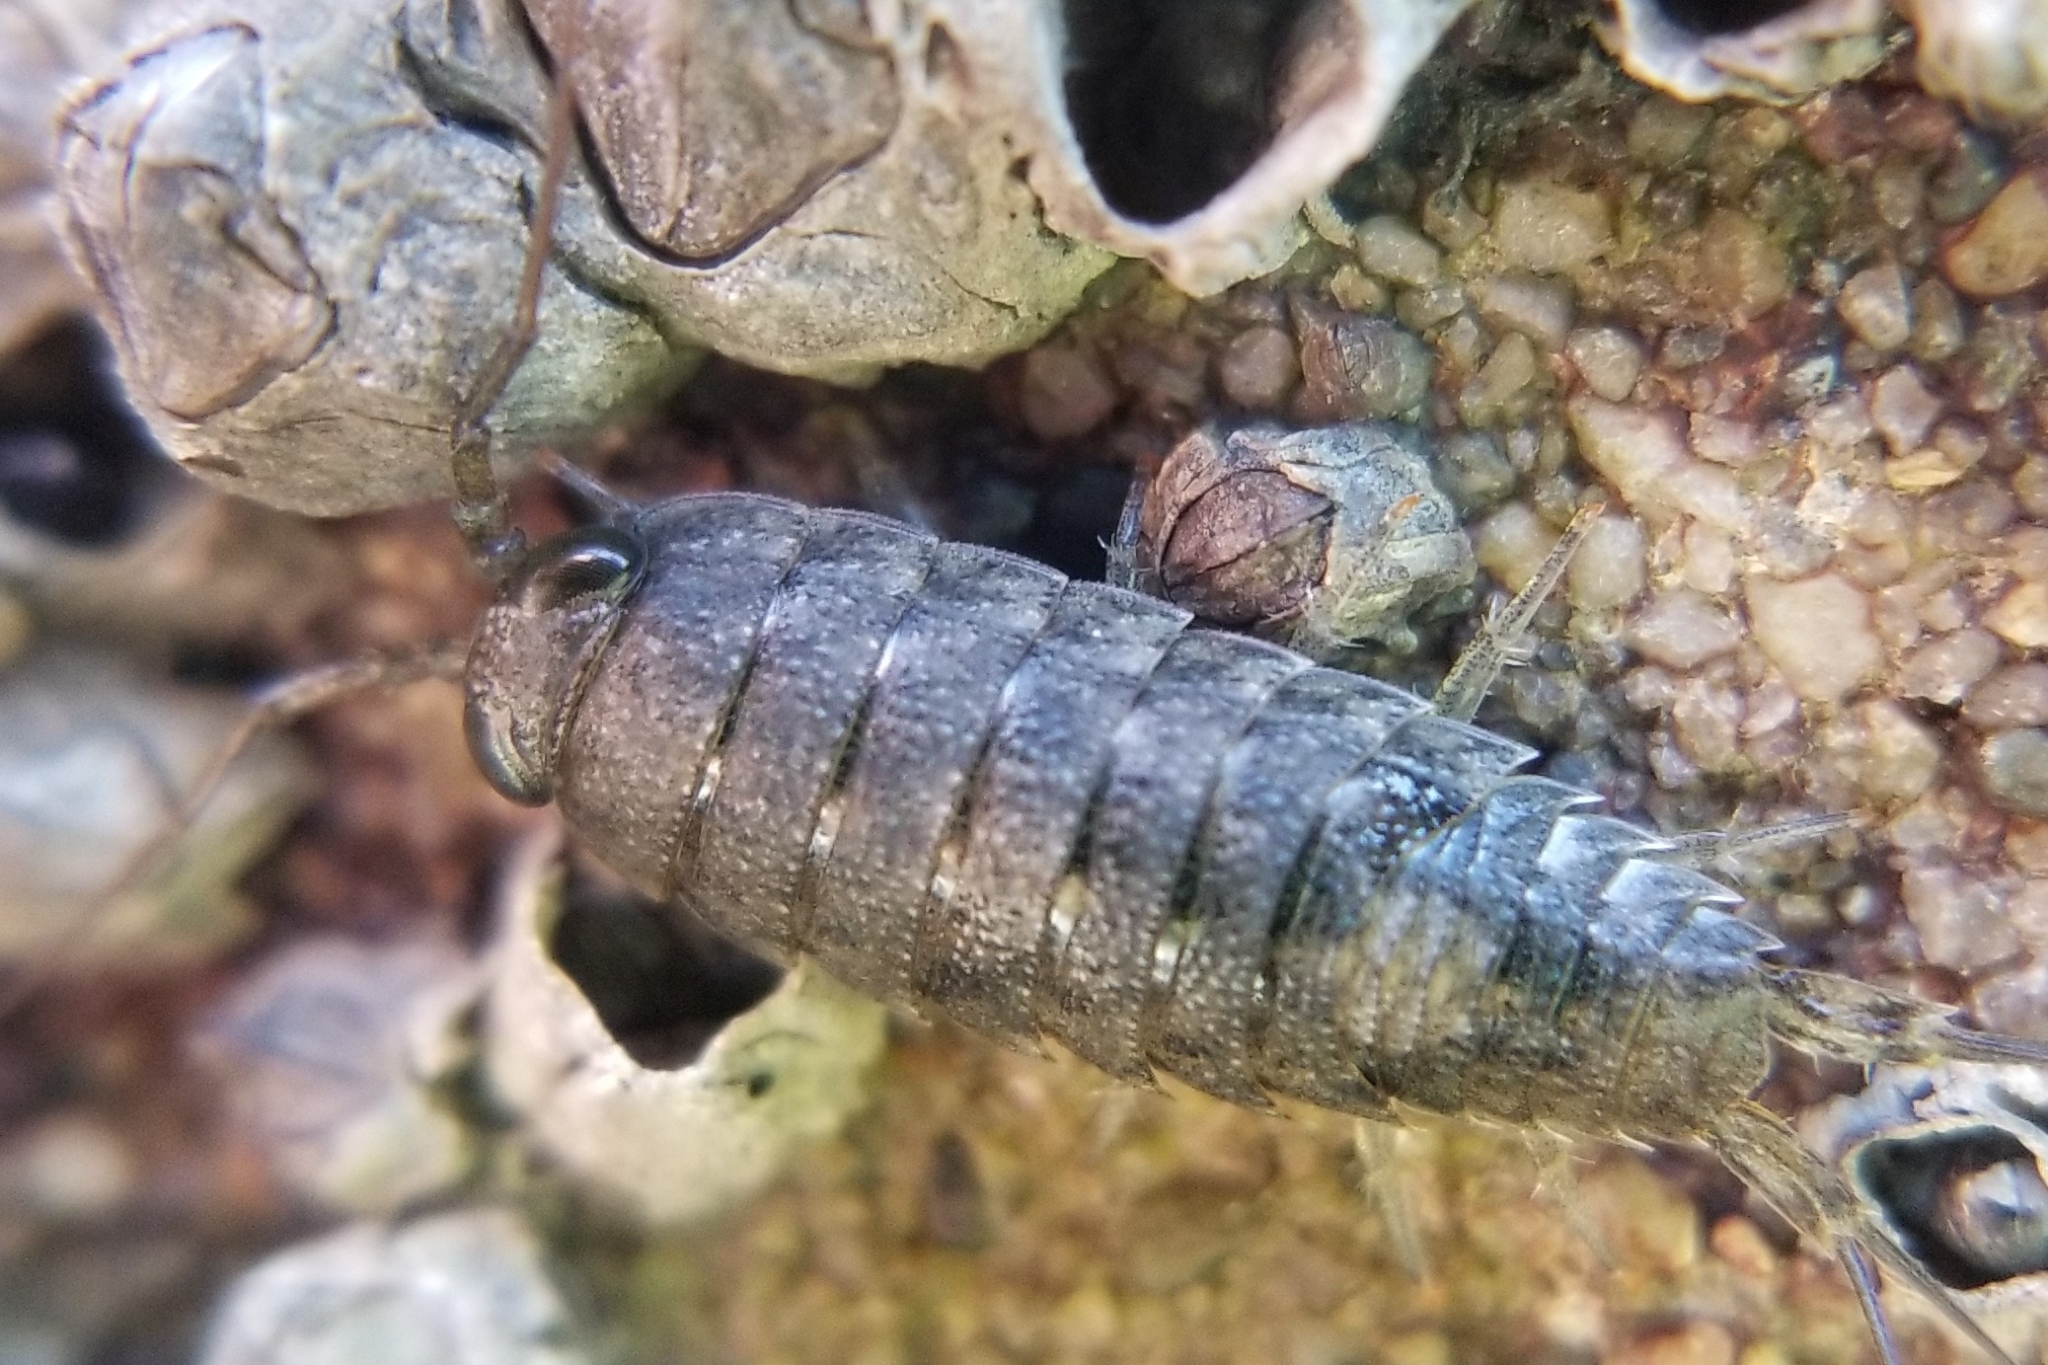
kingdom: Animalia
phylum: Arthropoda
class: Malacostraca
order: Isopoda
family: Ligiidae
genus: Ligia
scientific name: Ligia occidentalis
